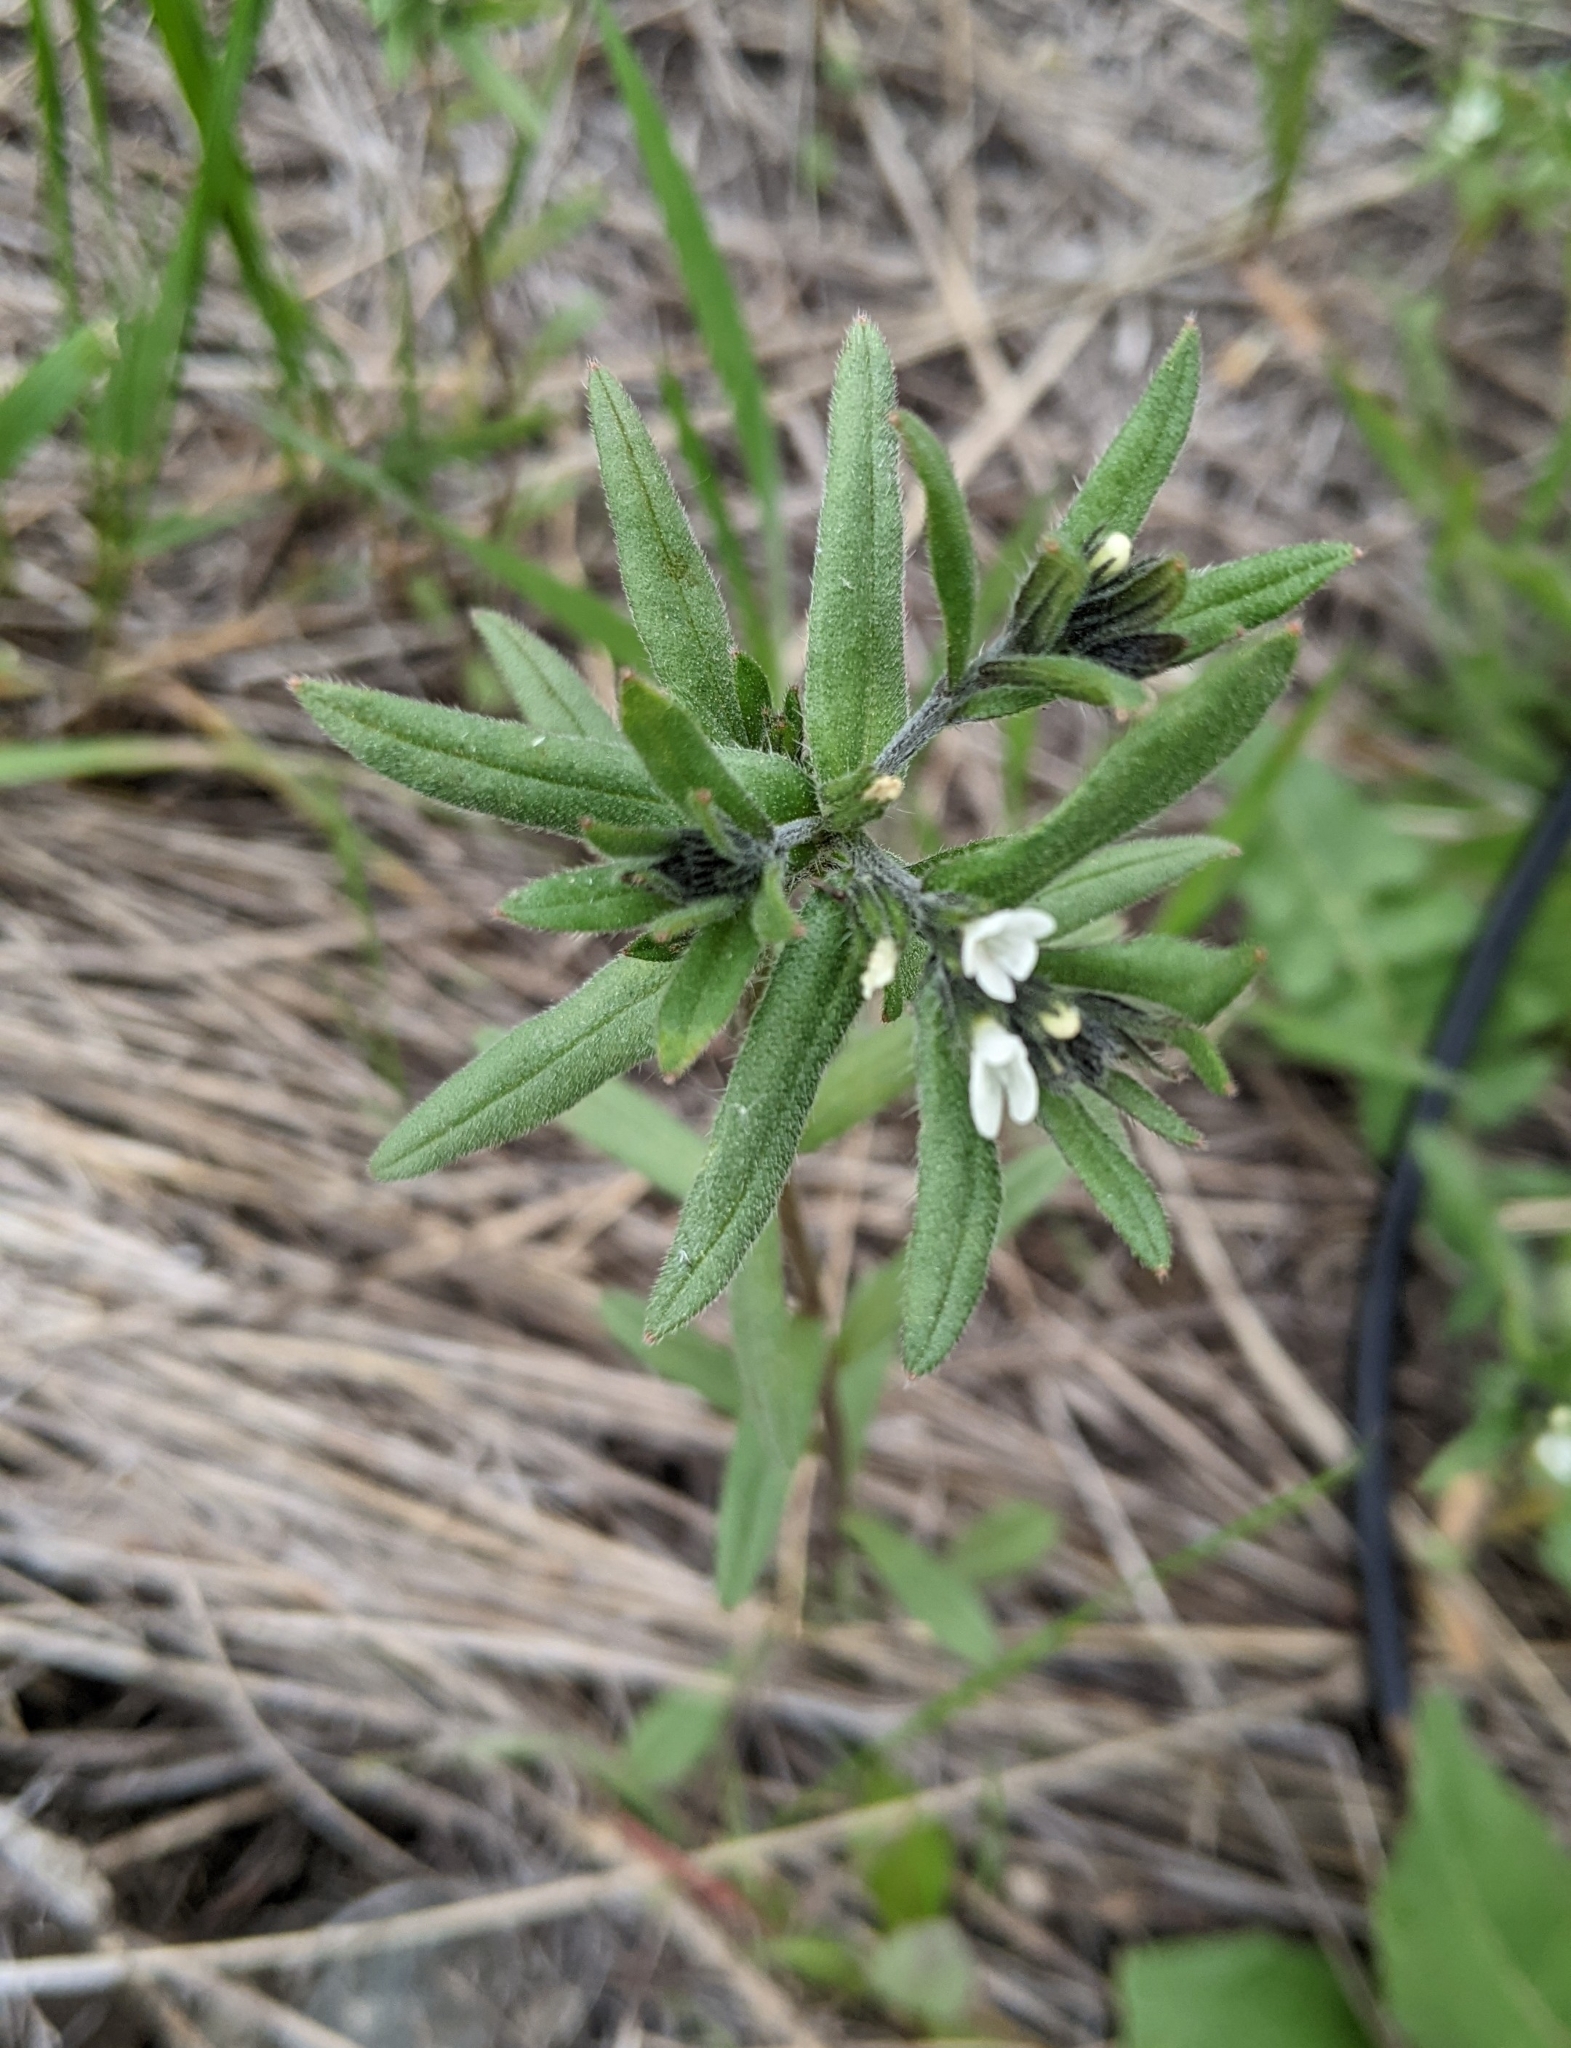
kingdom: Plantae
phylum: Tracheophyta
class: Magnoliopsida
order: Boraginales
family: Boraginaceae
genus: Buglossoides
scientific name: Buglossoides arvensis
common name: Corn gromwell
